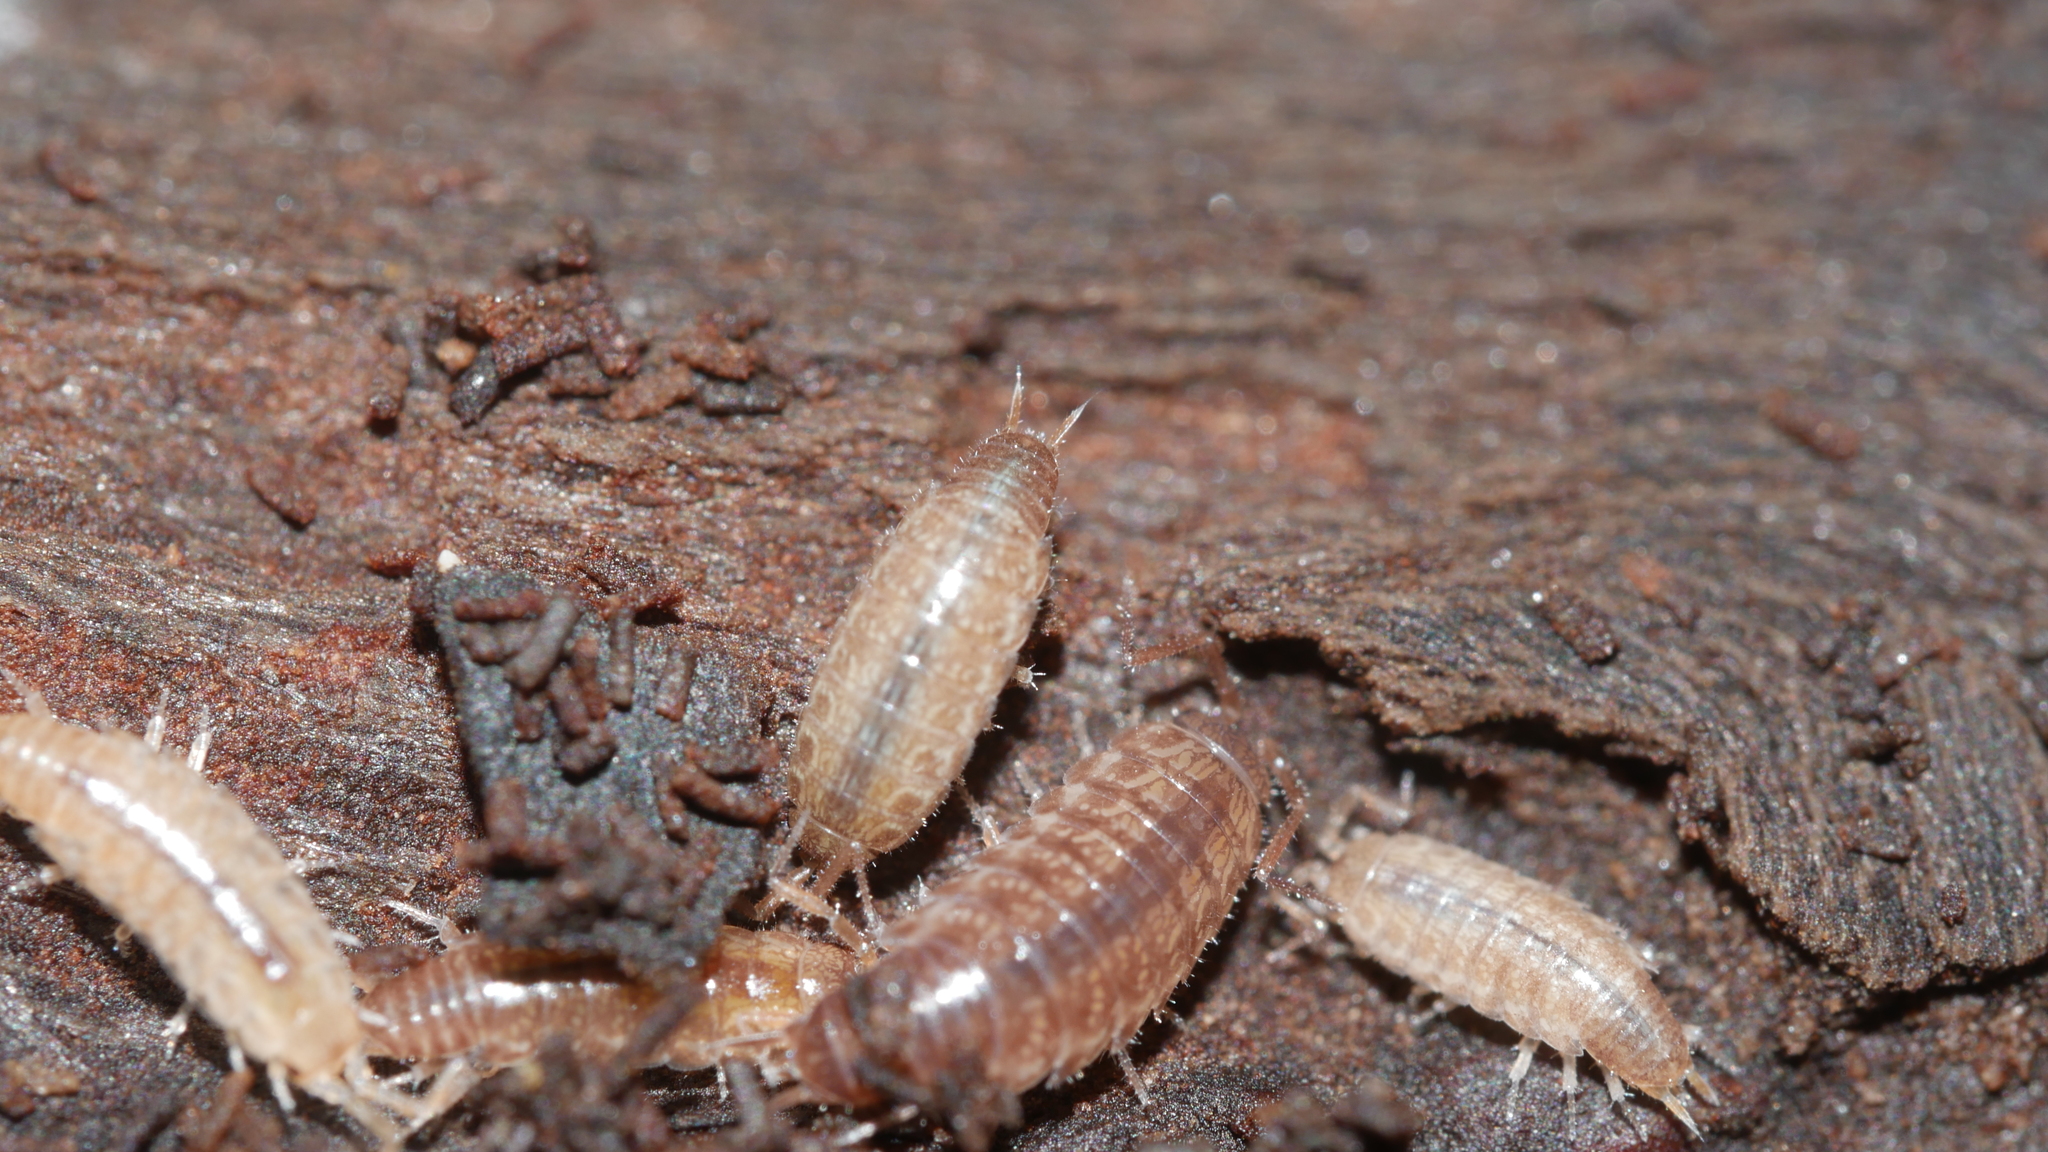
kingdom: Animalia
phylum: Arthropoda
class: Malacostraca
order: Isopoda
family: Philosciidae
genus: Chaetophiloscia
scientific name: Chaetophiloscia sicula
